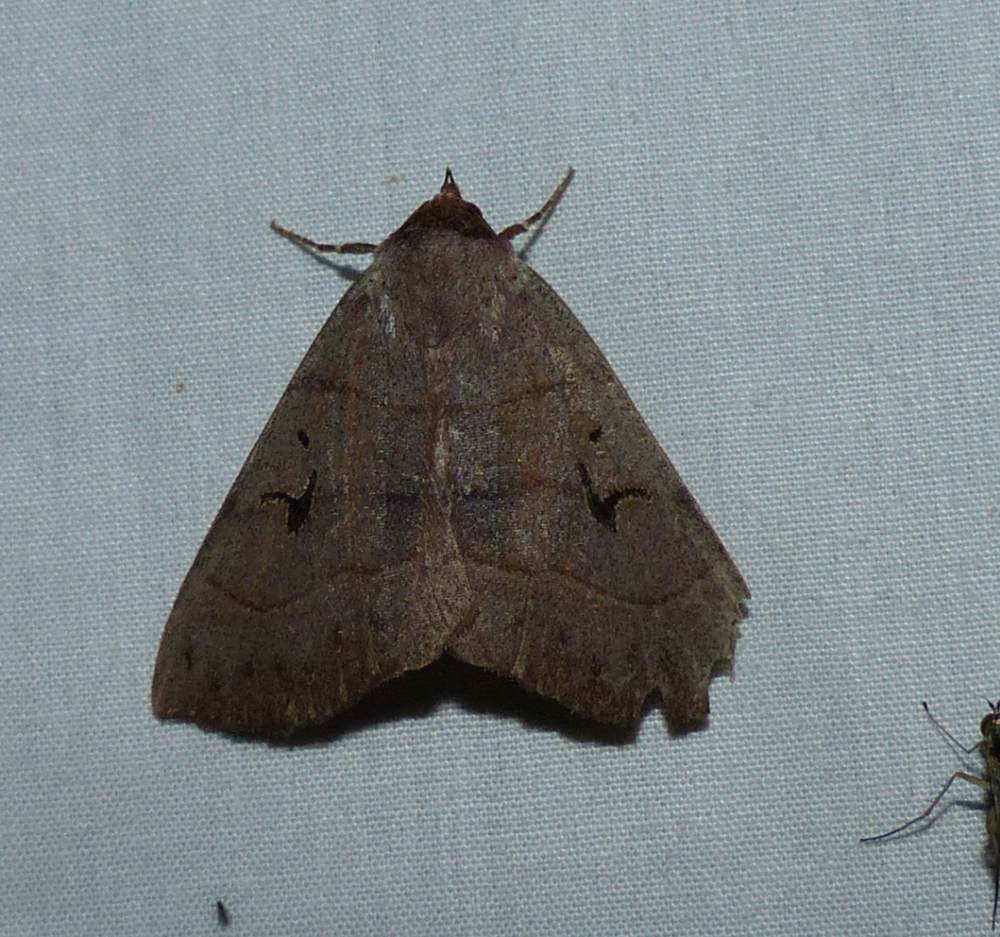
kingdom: Animalia
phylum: Arthropoda
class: Insecta
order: Lepidoptera
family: Erebidae
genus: Panopoda
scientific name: Panopoda carneicosta
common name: Brown panopoda moth
